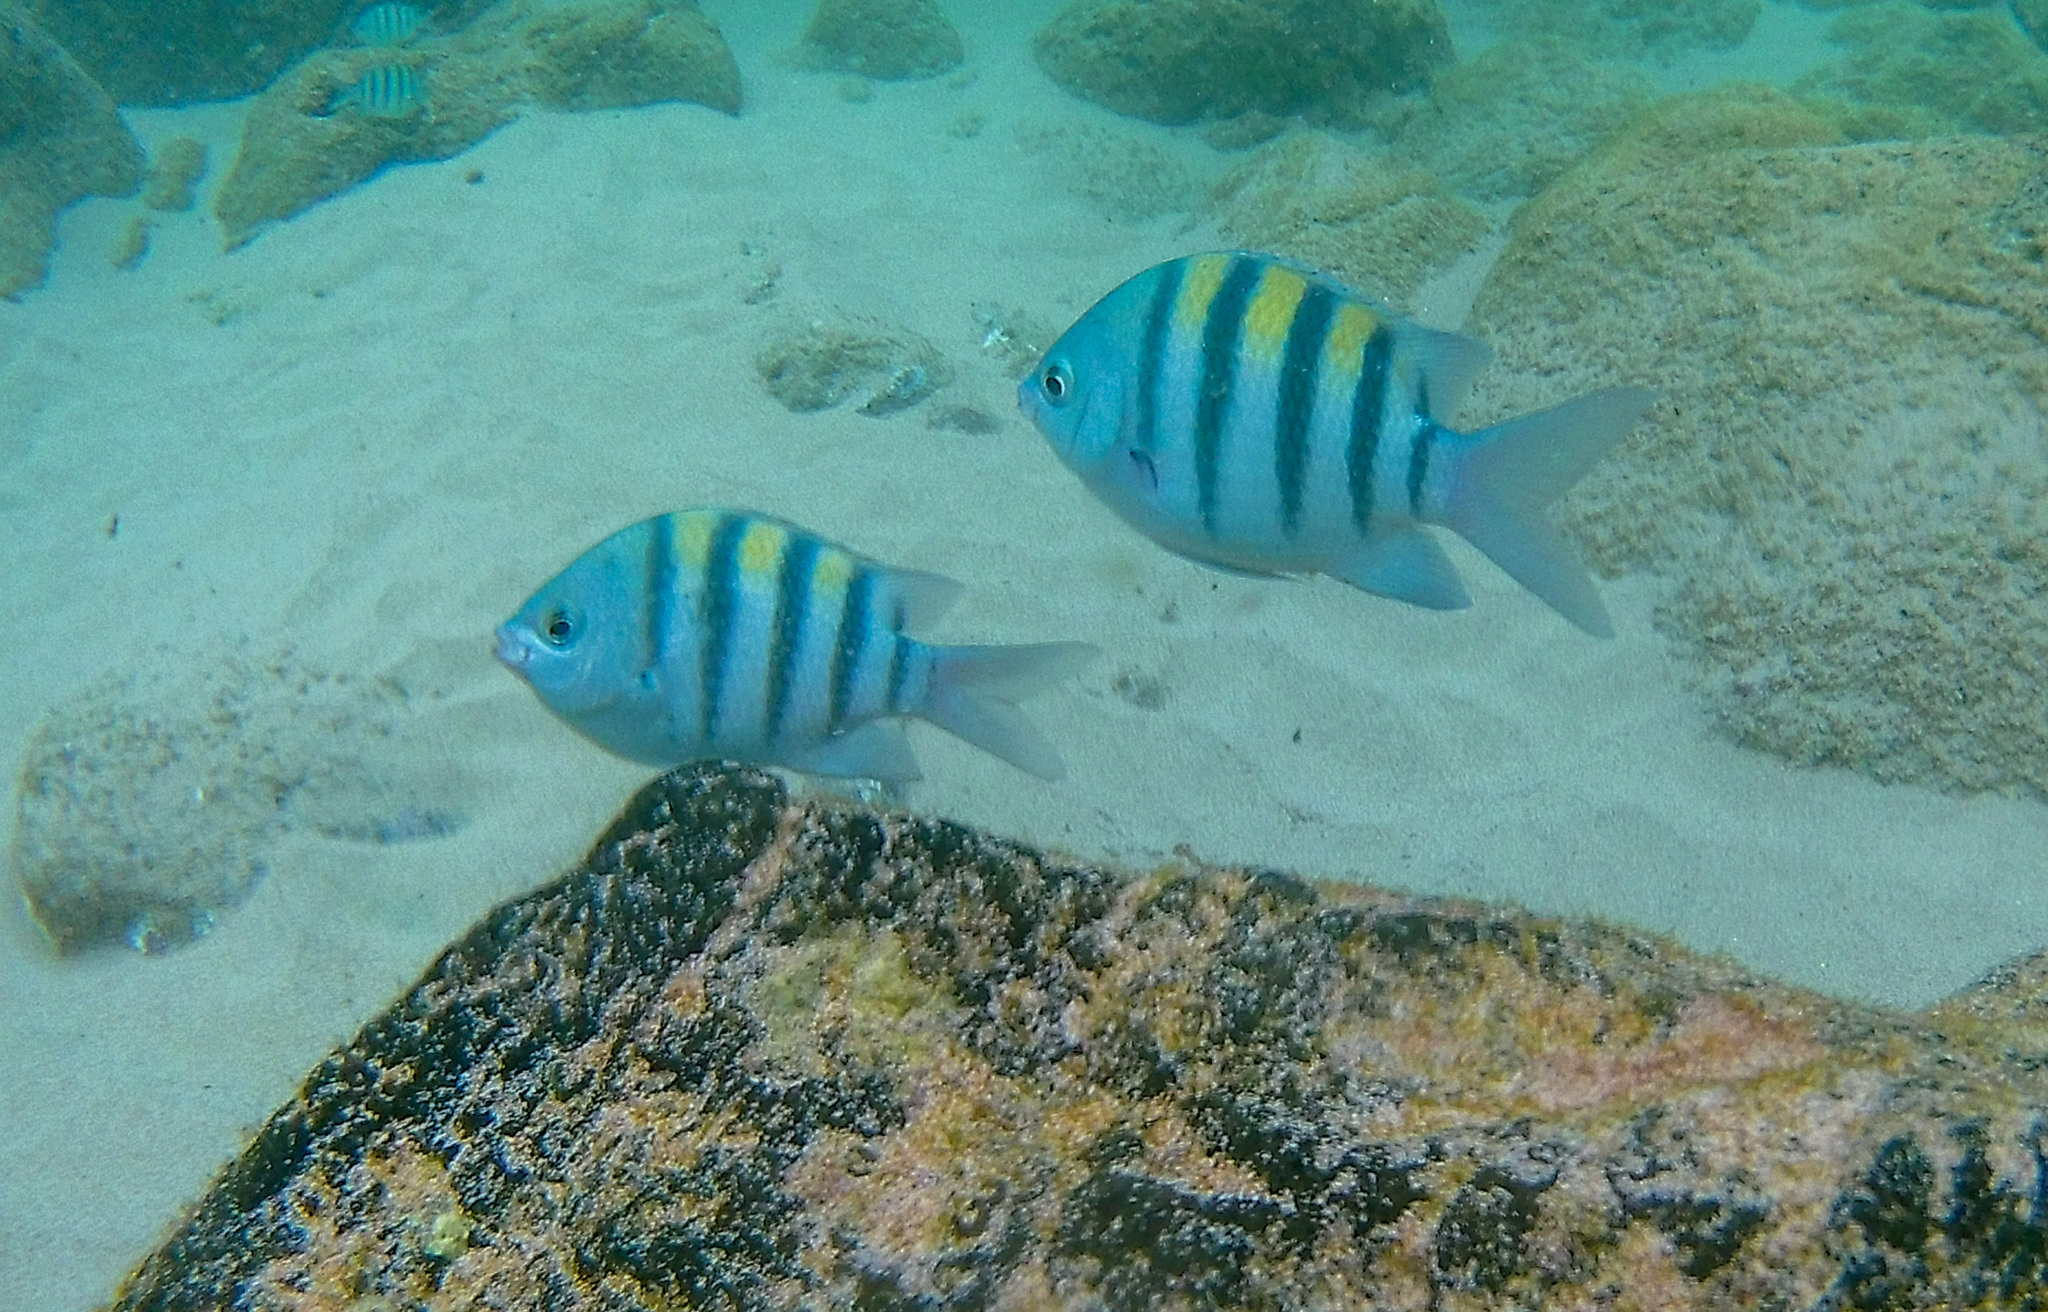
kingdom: Animalia
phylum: Chordata
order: Perciformes
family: Pomacentridae
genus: Abudefduf
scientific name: Abudefduf saxatilis
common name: Sergeant major
